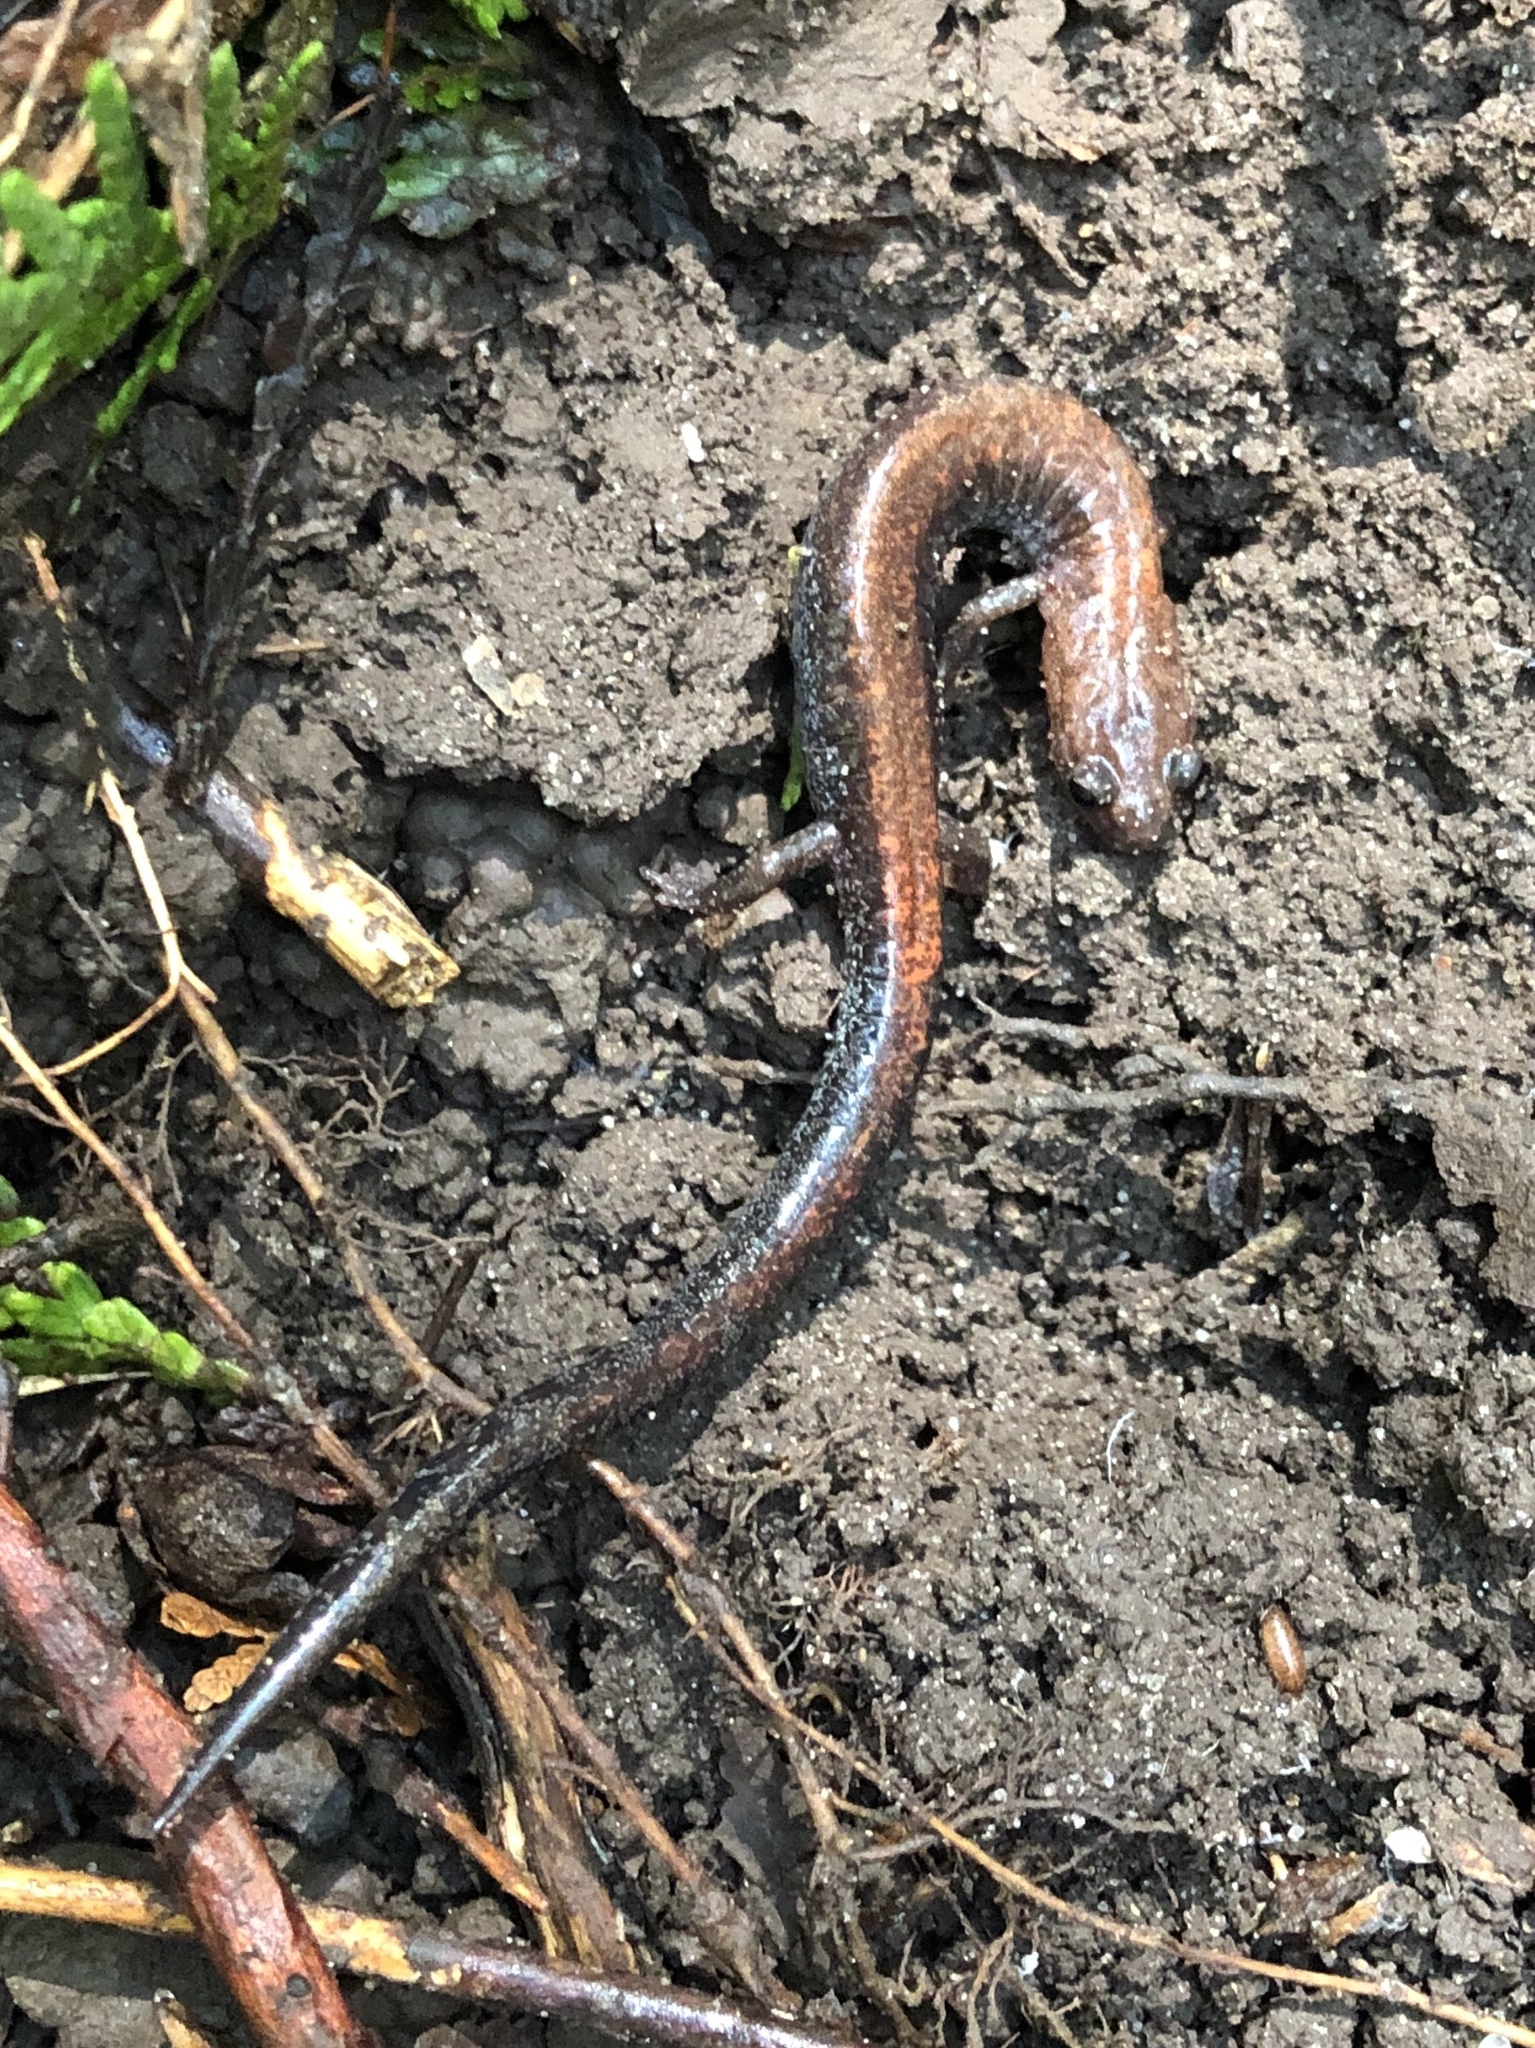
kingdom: Animalia
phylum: Chordata
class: Amphibia
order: Caudata
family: Plethodontidae
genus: Plethodon
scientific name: Plethodon cinereus
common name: Redback salamander
